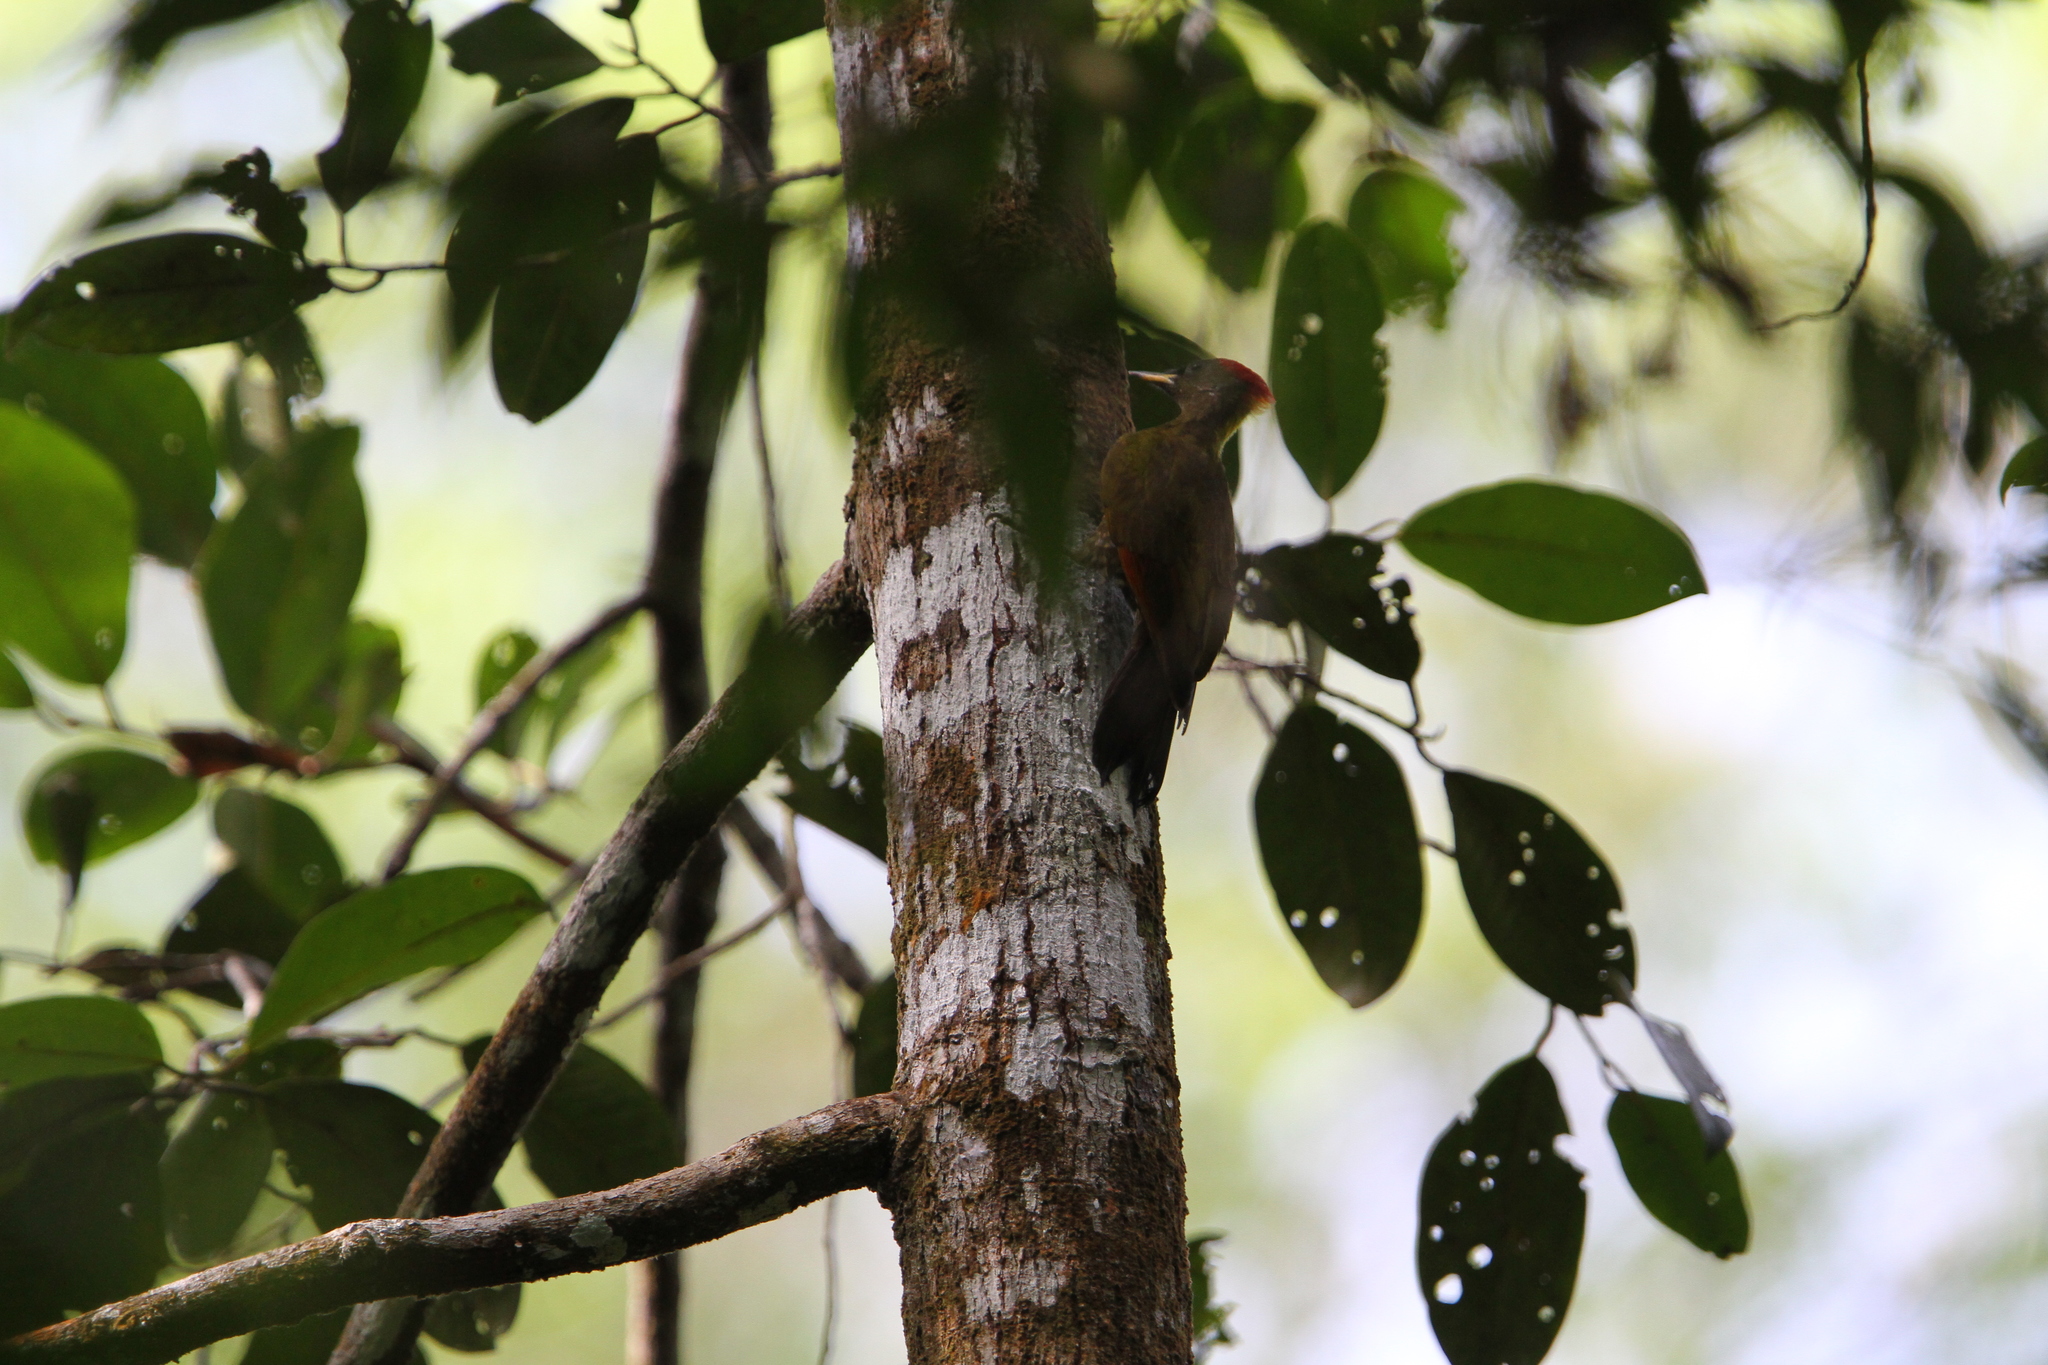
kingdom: Animalia
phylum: Chordata
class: Aves
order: Piciformes
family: Picidae
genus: Picus
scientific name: Picus chlorolophus
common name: Lesser yellownape
